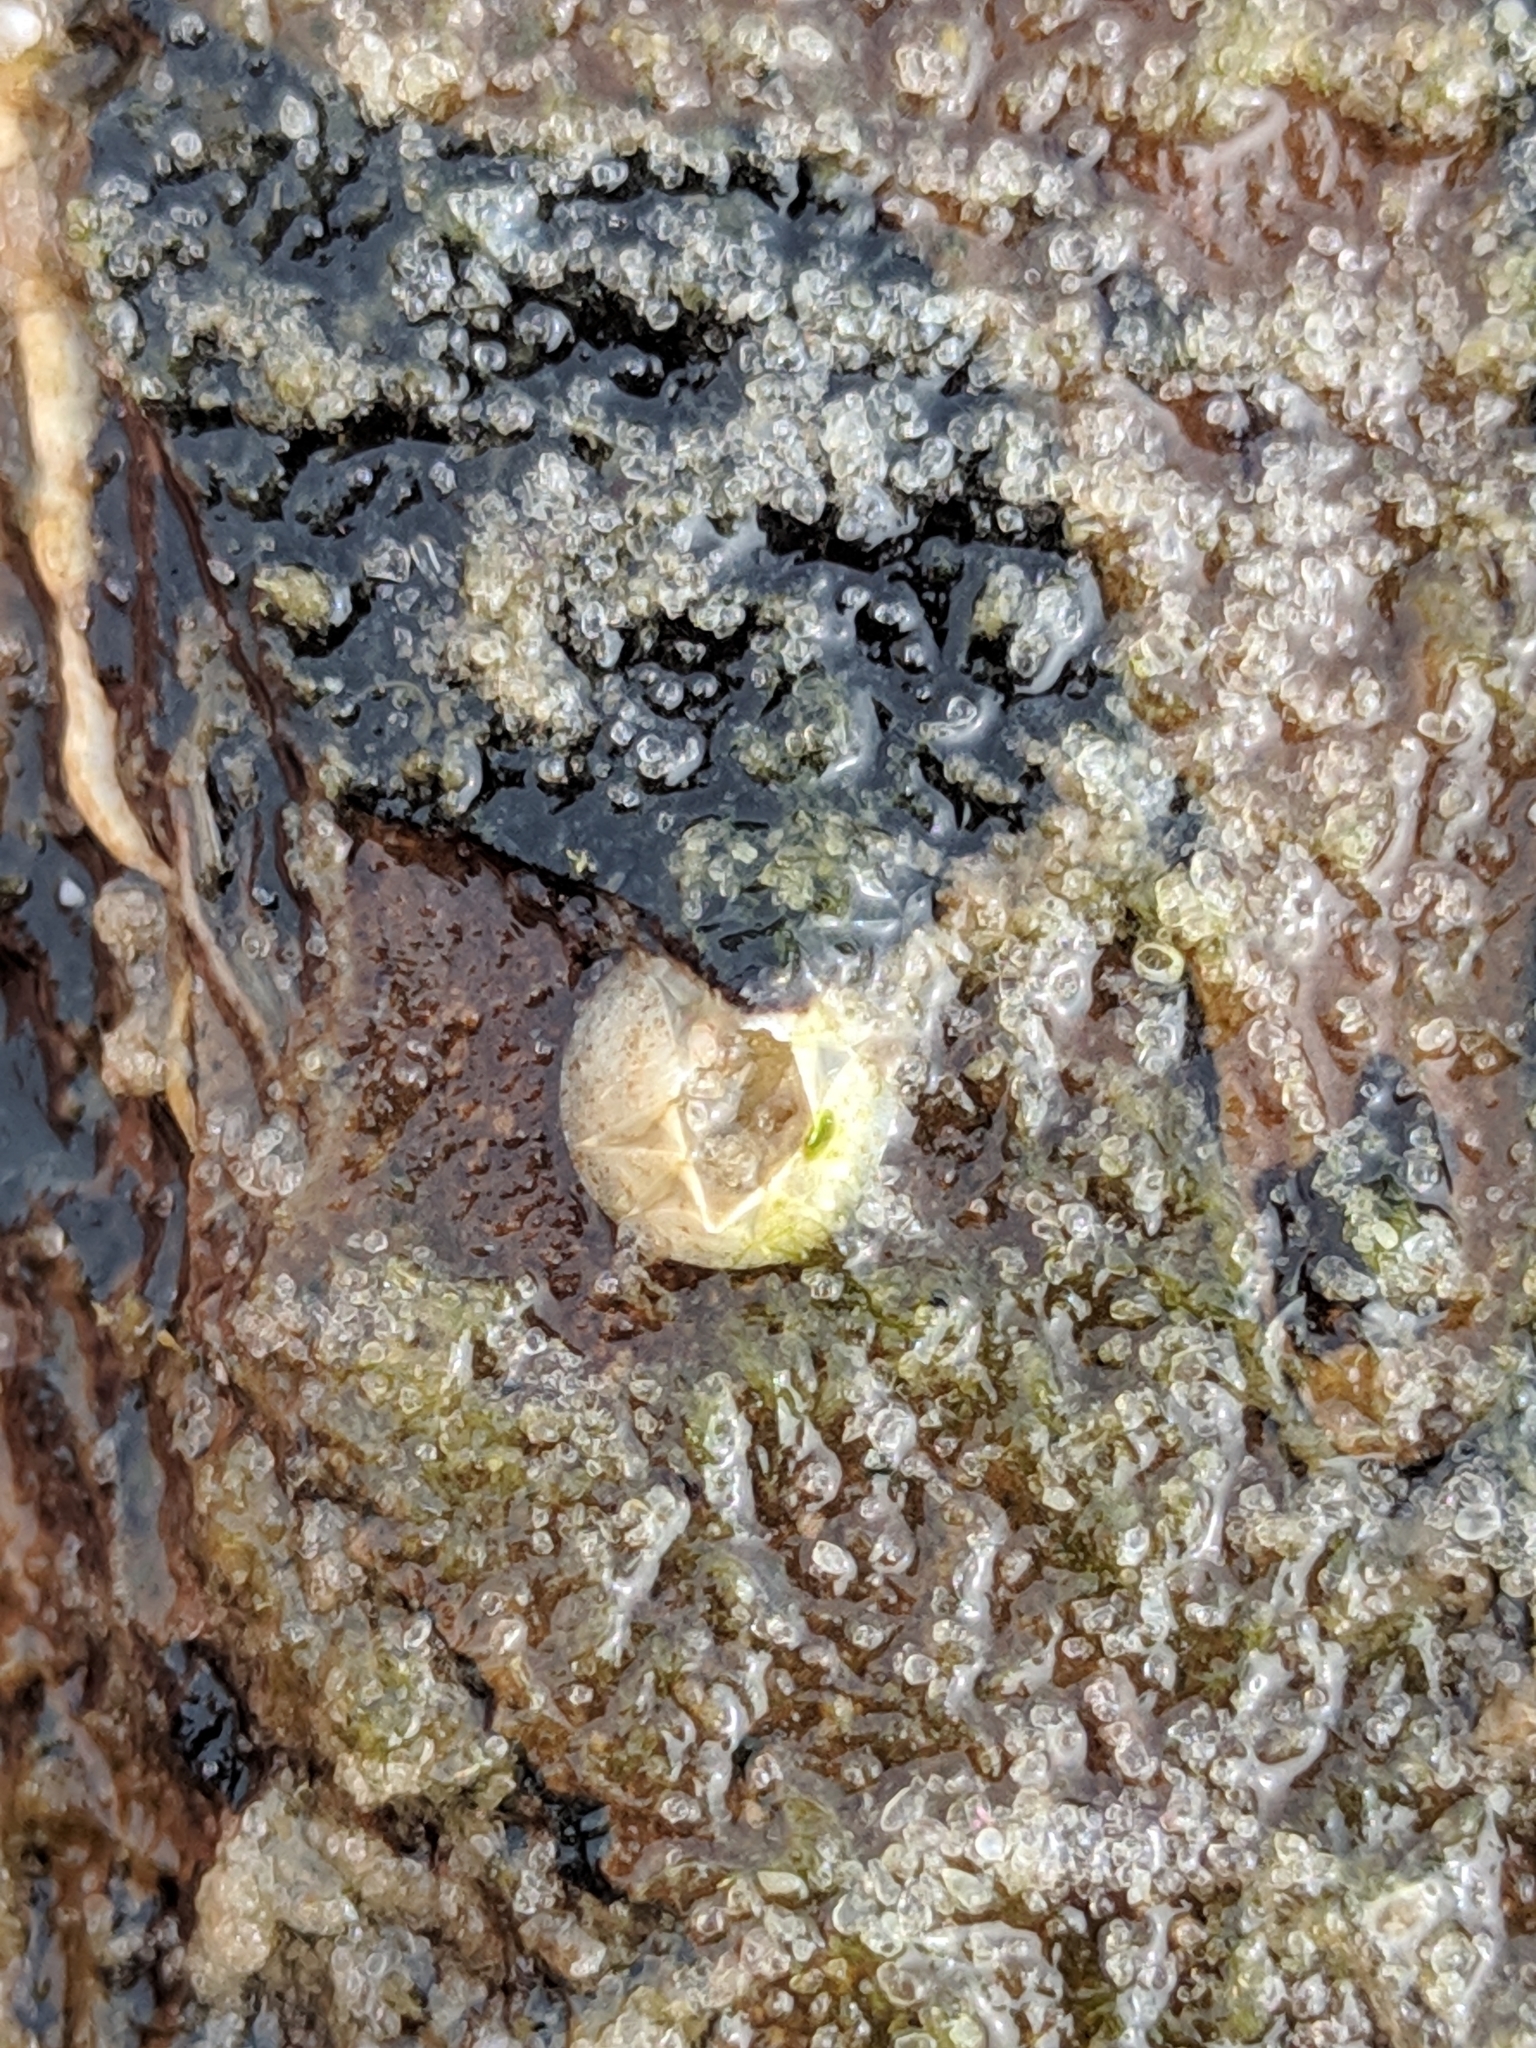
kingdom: Animalia
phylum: Arthropoda
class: Maxillopoda
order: Sessilia
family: Balanidae
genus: Amphibalanus
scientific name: Amphibalanus improvisus
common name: Bay barnacle
